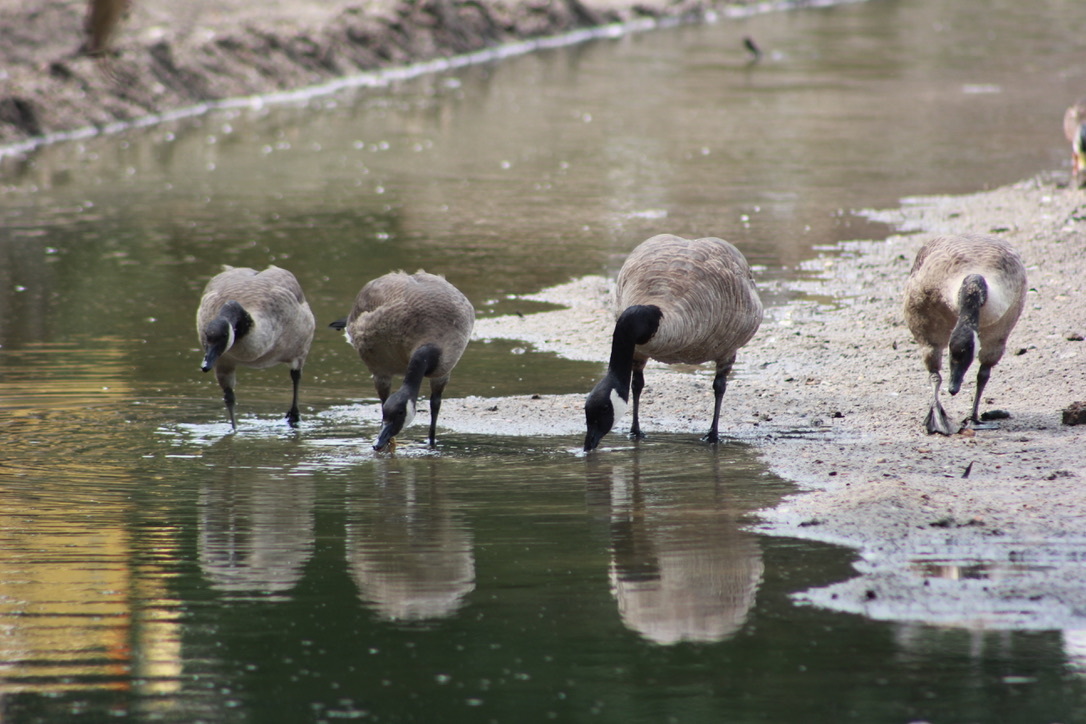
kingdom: Animalia
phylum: Chordata
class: Aves
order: Anseriformes
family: Anatidae
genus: Branta
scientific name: Branta canadensis
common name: Canada goose
